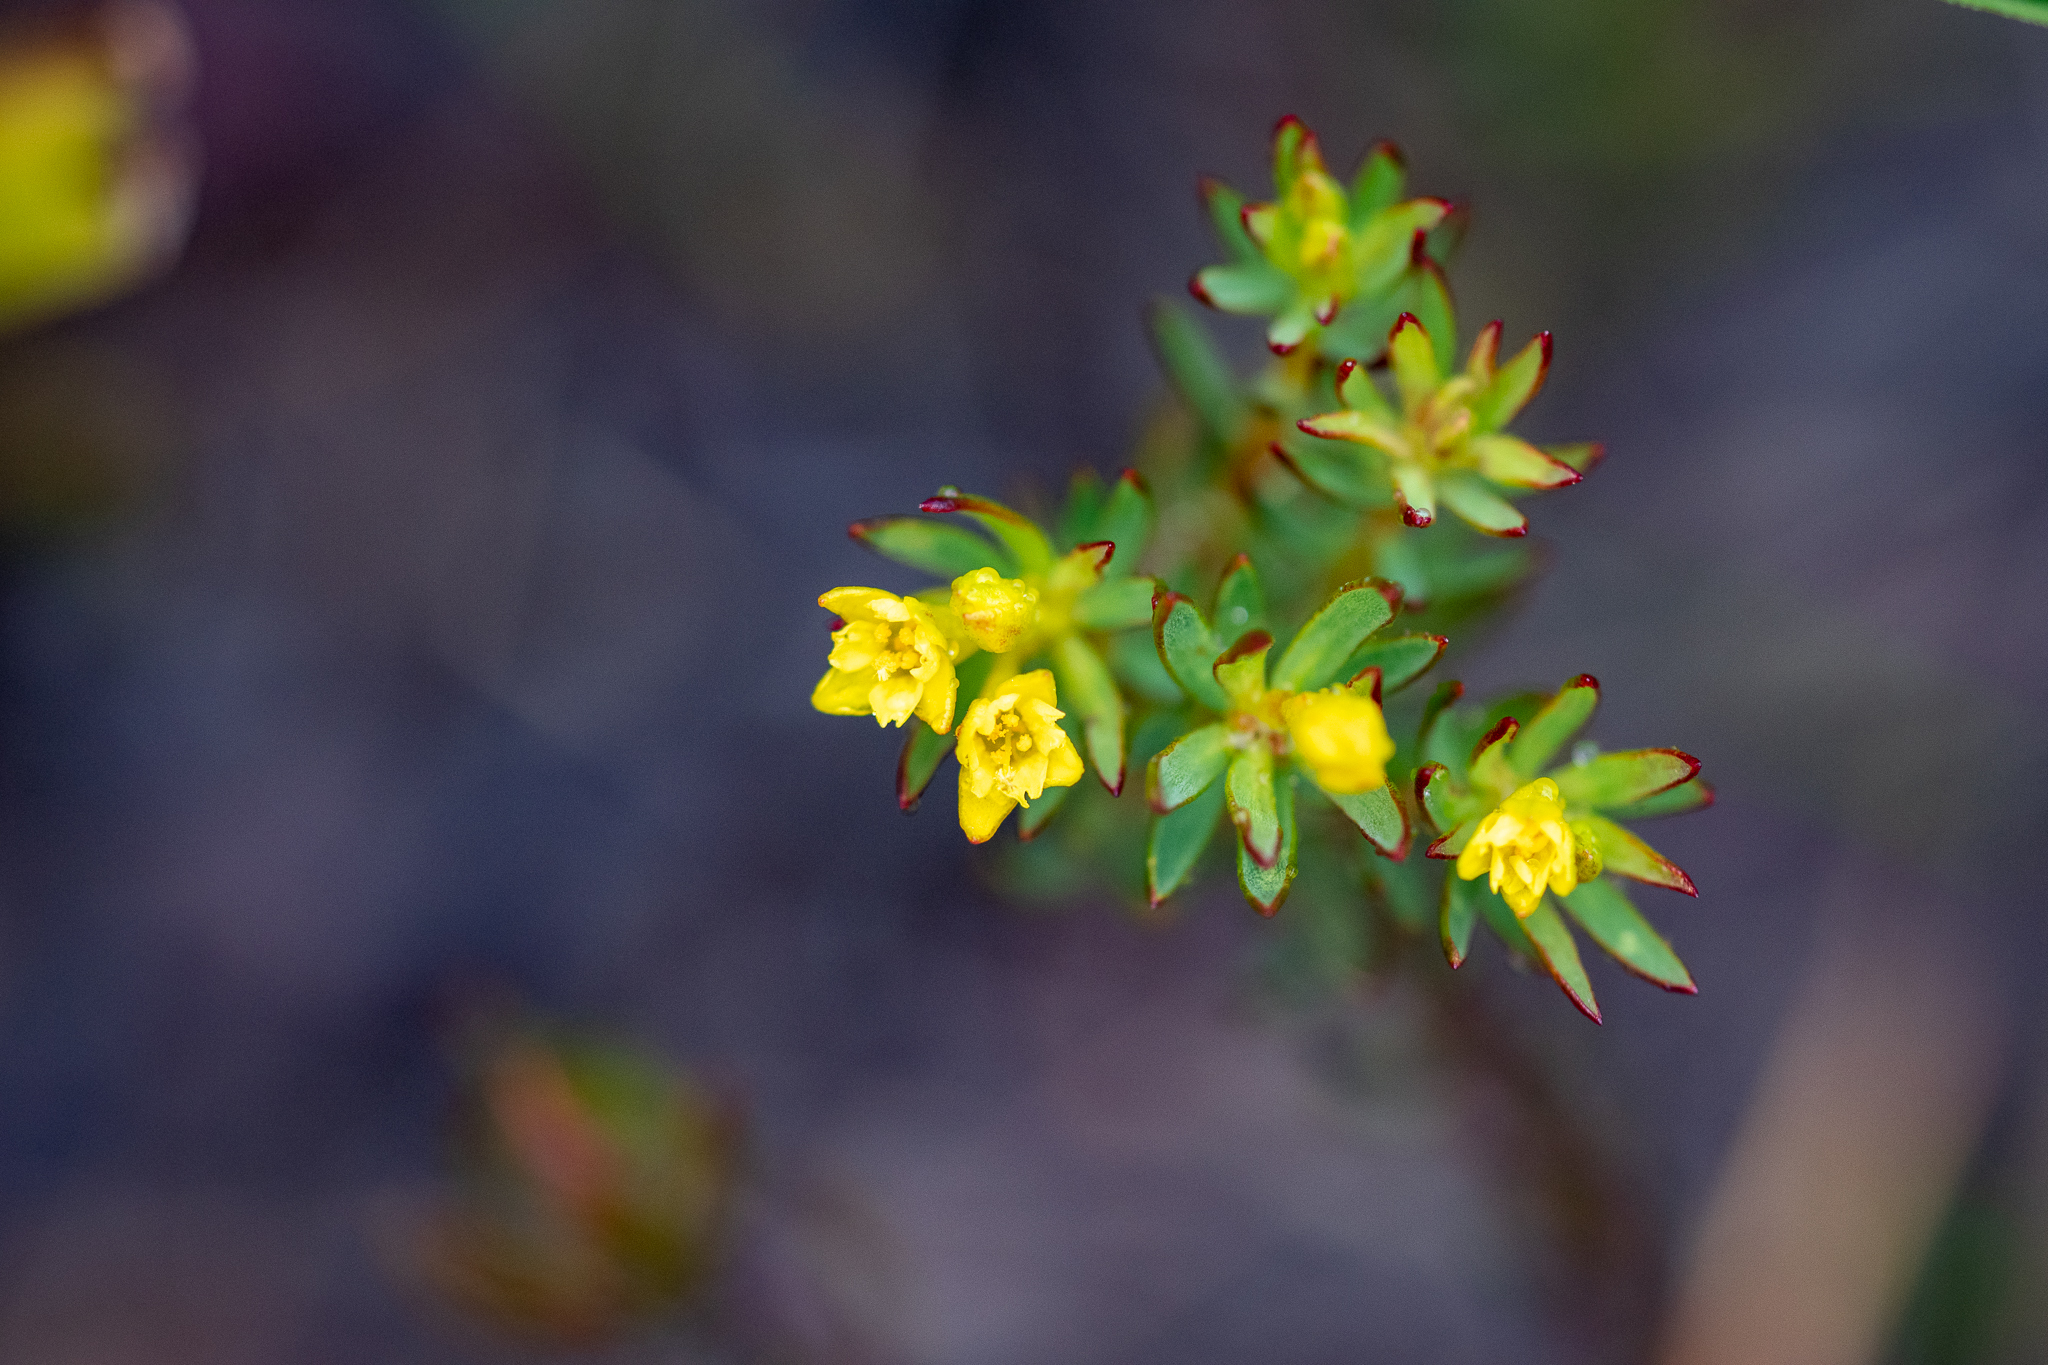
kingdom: Plantae
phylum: Tracheophyta
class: Magnoliopsida
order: Malvales
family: Thymelaeaceae
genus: Gnidia
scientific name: Gnidia juniperifolia
